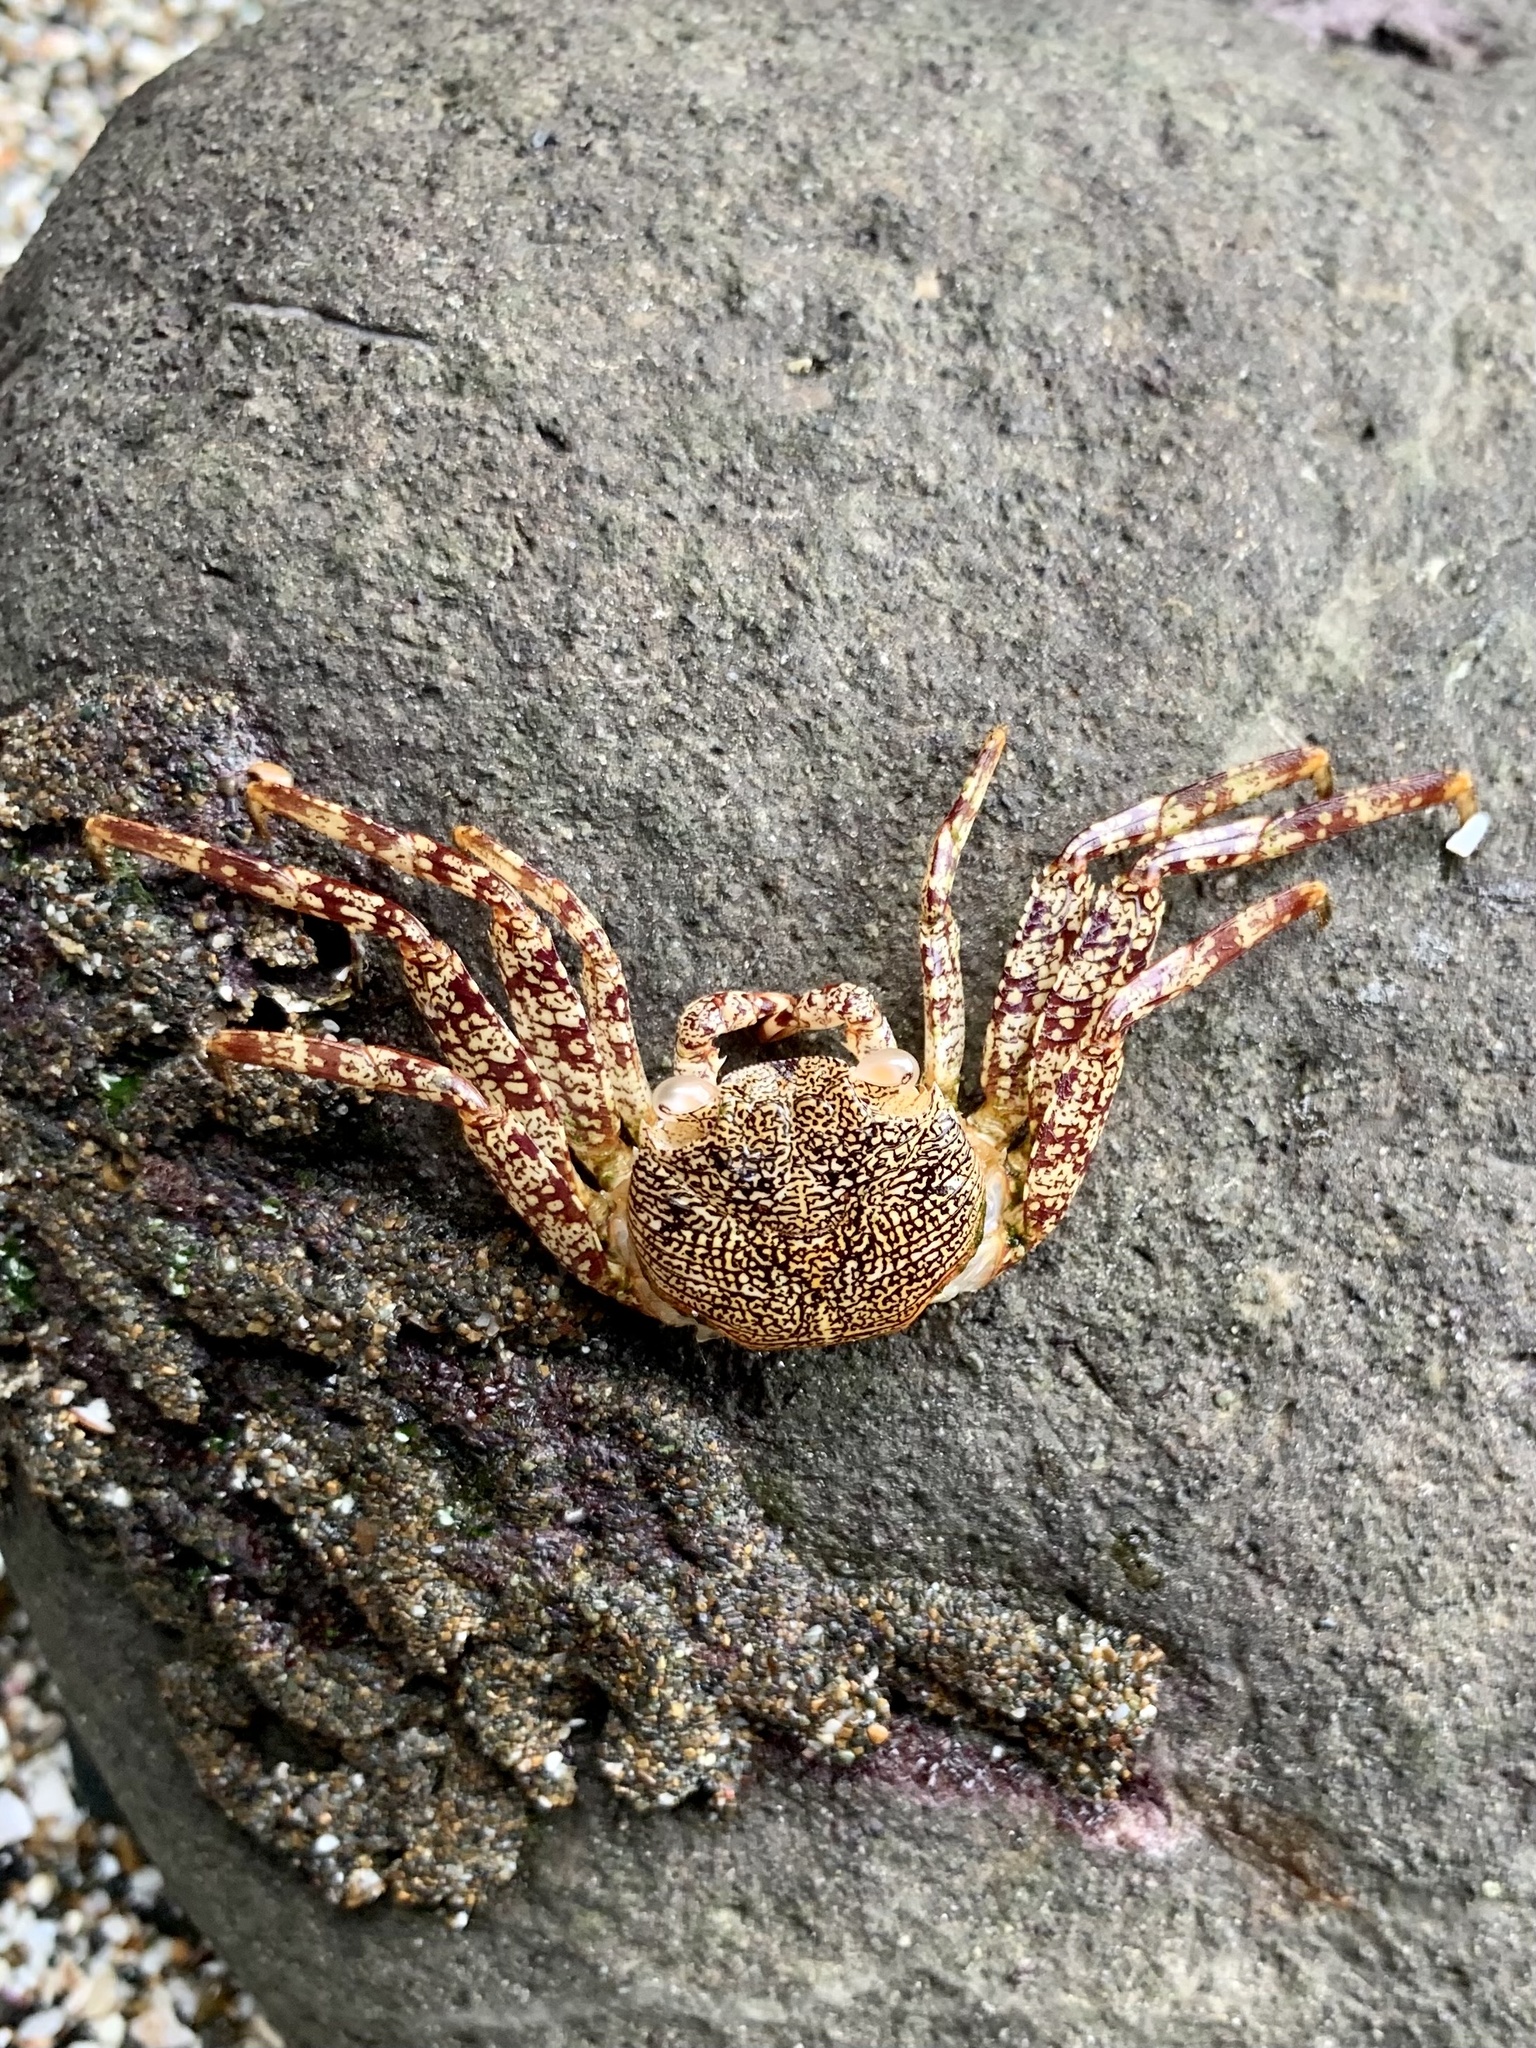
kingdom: Animalia
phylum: Arthropoda
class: Malacostraca
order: Decapoda
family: Grapsidae
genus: Grapsus
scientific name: Grapsus grapsus
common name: Sally lightfoot
